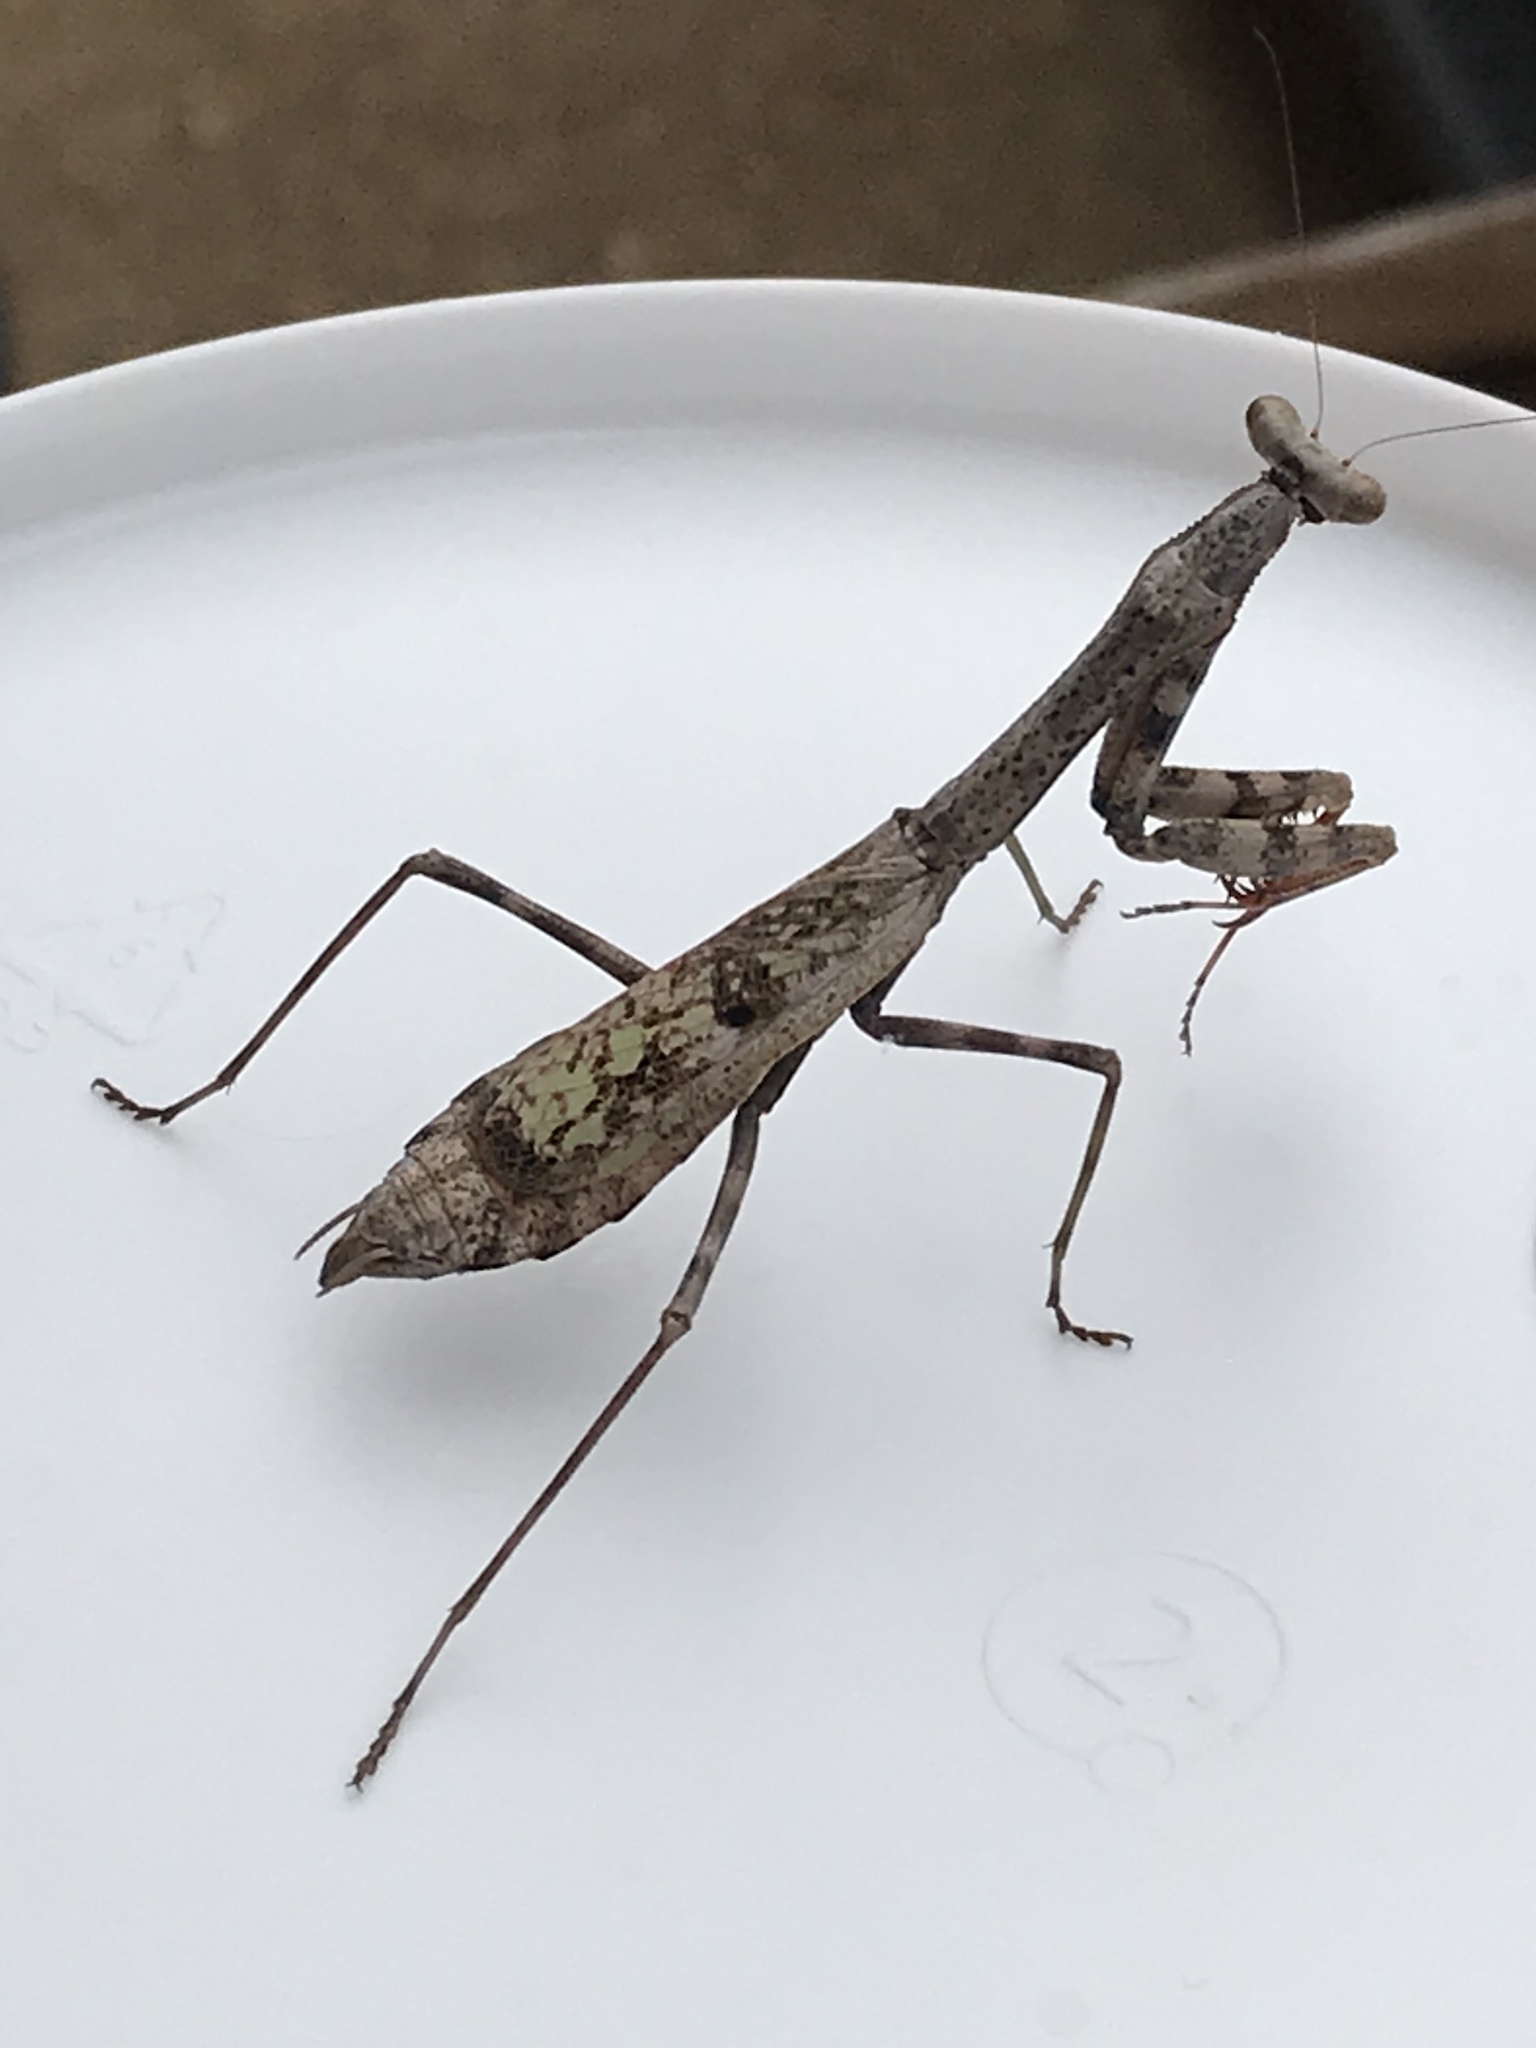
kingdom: Animalia
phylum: Arthropoda
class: Insecta
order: Mantodea
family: Mantidae
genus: Stagmomantis
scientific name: Stagmomantis carolina
